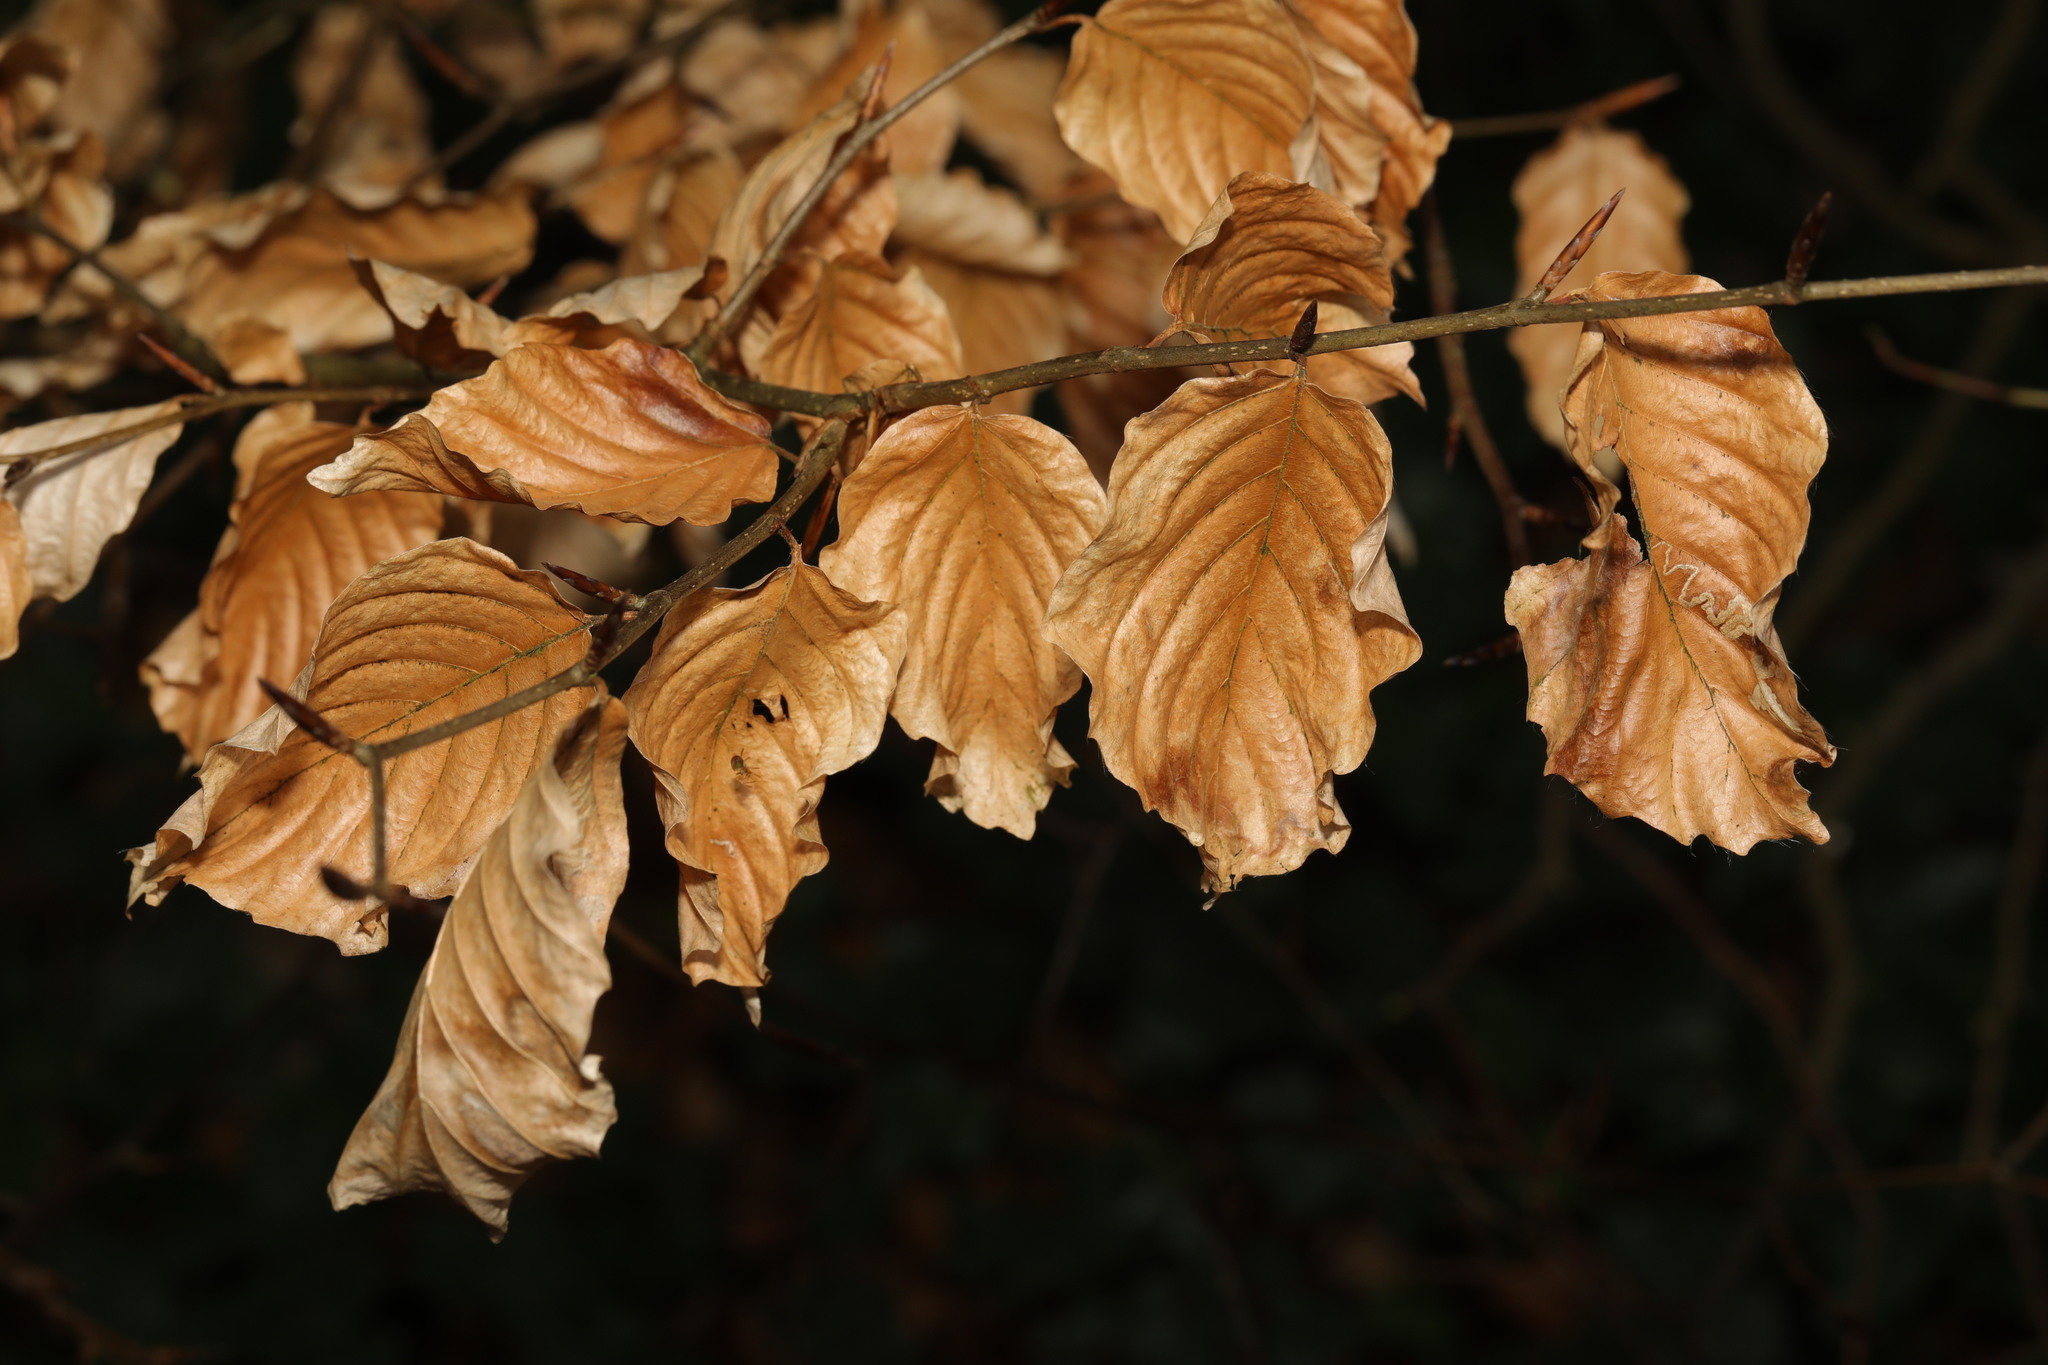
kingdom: Plantae
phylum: Tracheophyta
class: Magnoliopsida
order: Fagales
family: Fagaceae
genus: Fagus
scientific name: Fagus sylvatica
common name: Beech
